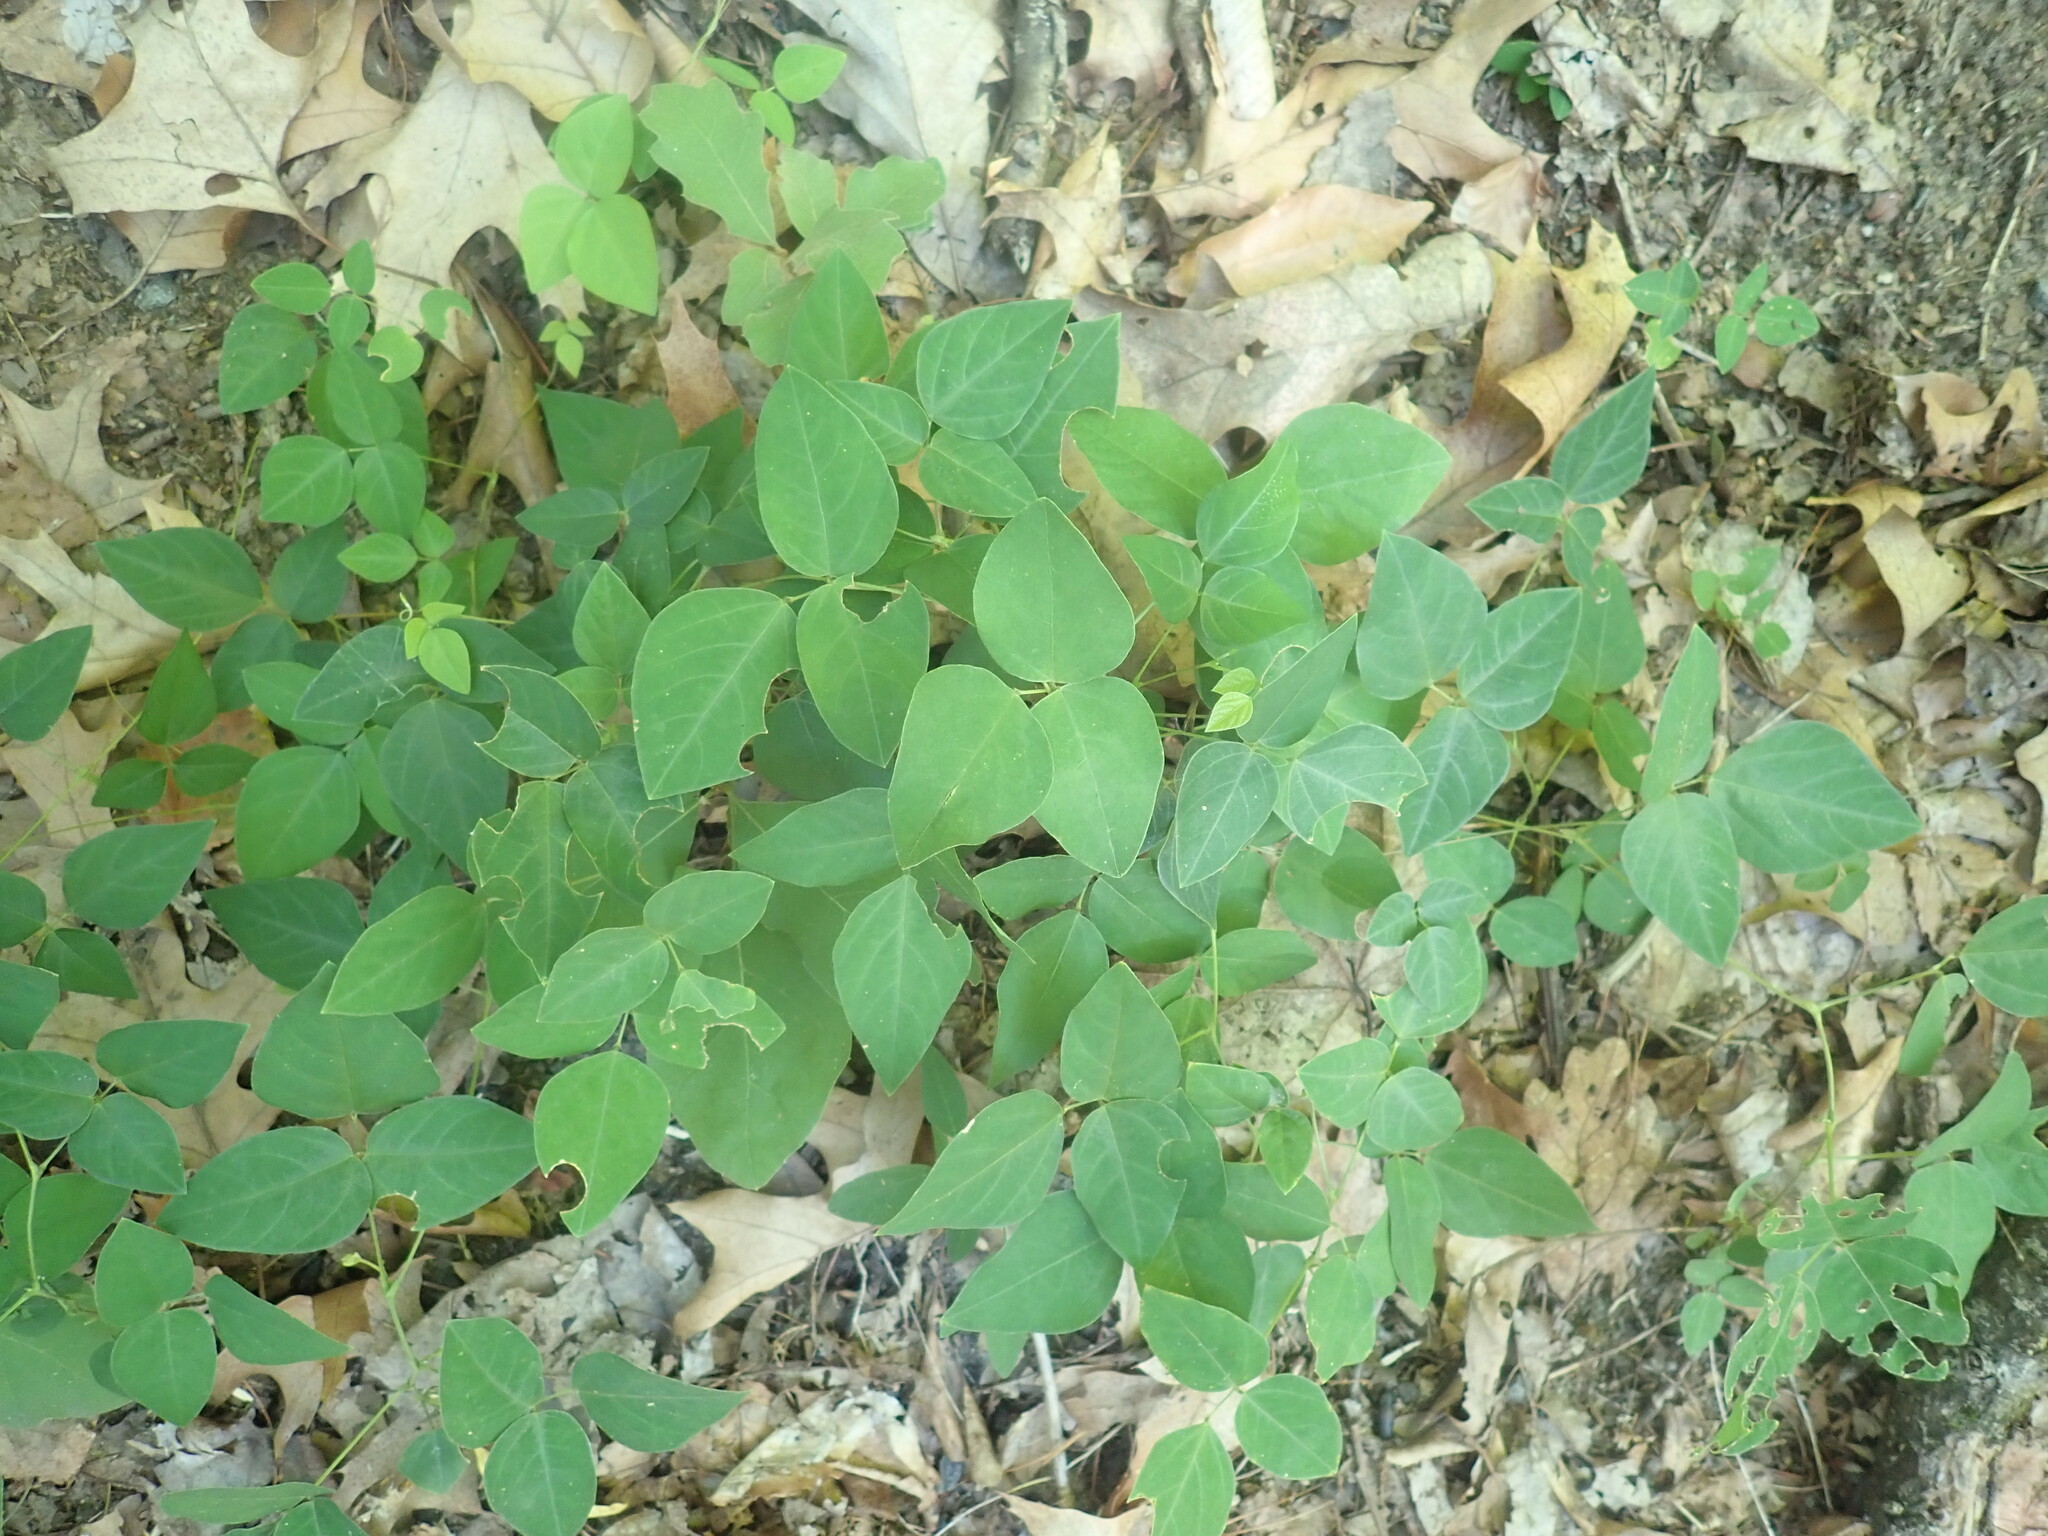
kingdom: Plantae
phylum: Tracheophyta
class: Magnoliopsida
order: Fabales
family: Fabaceae
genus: Amphicarpaea
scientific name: Amphicarpaea bracteata
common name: American hog peanut
